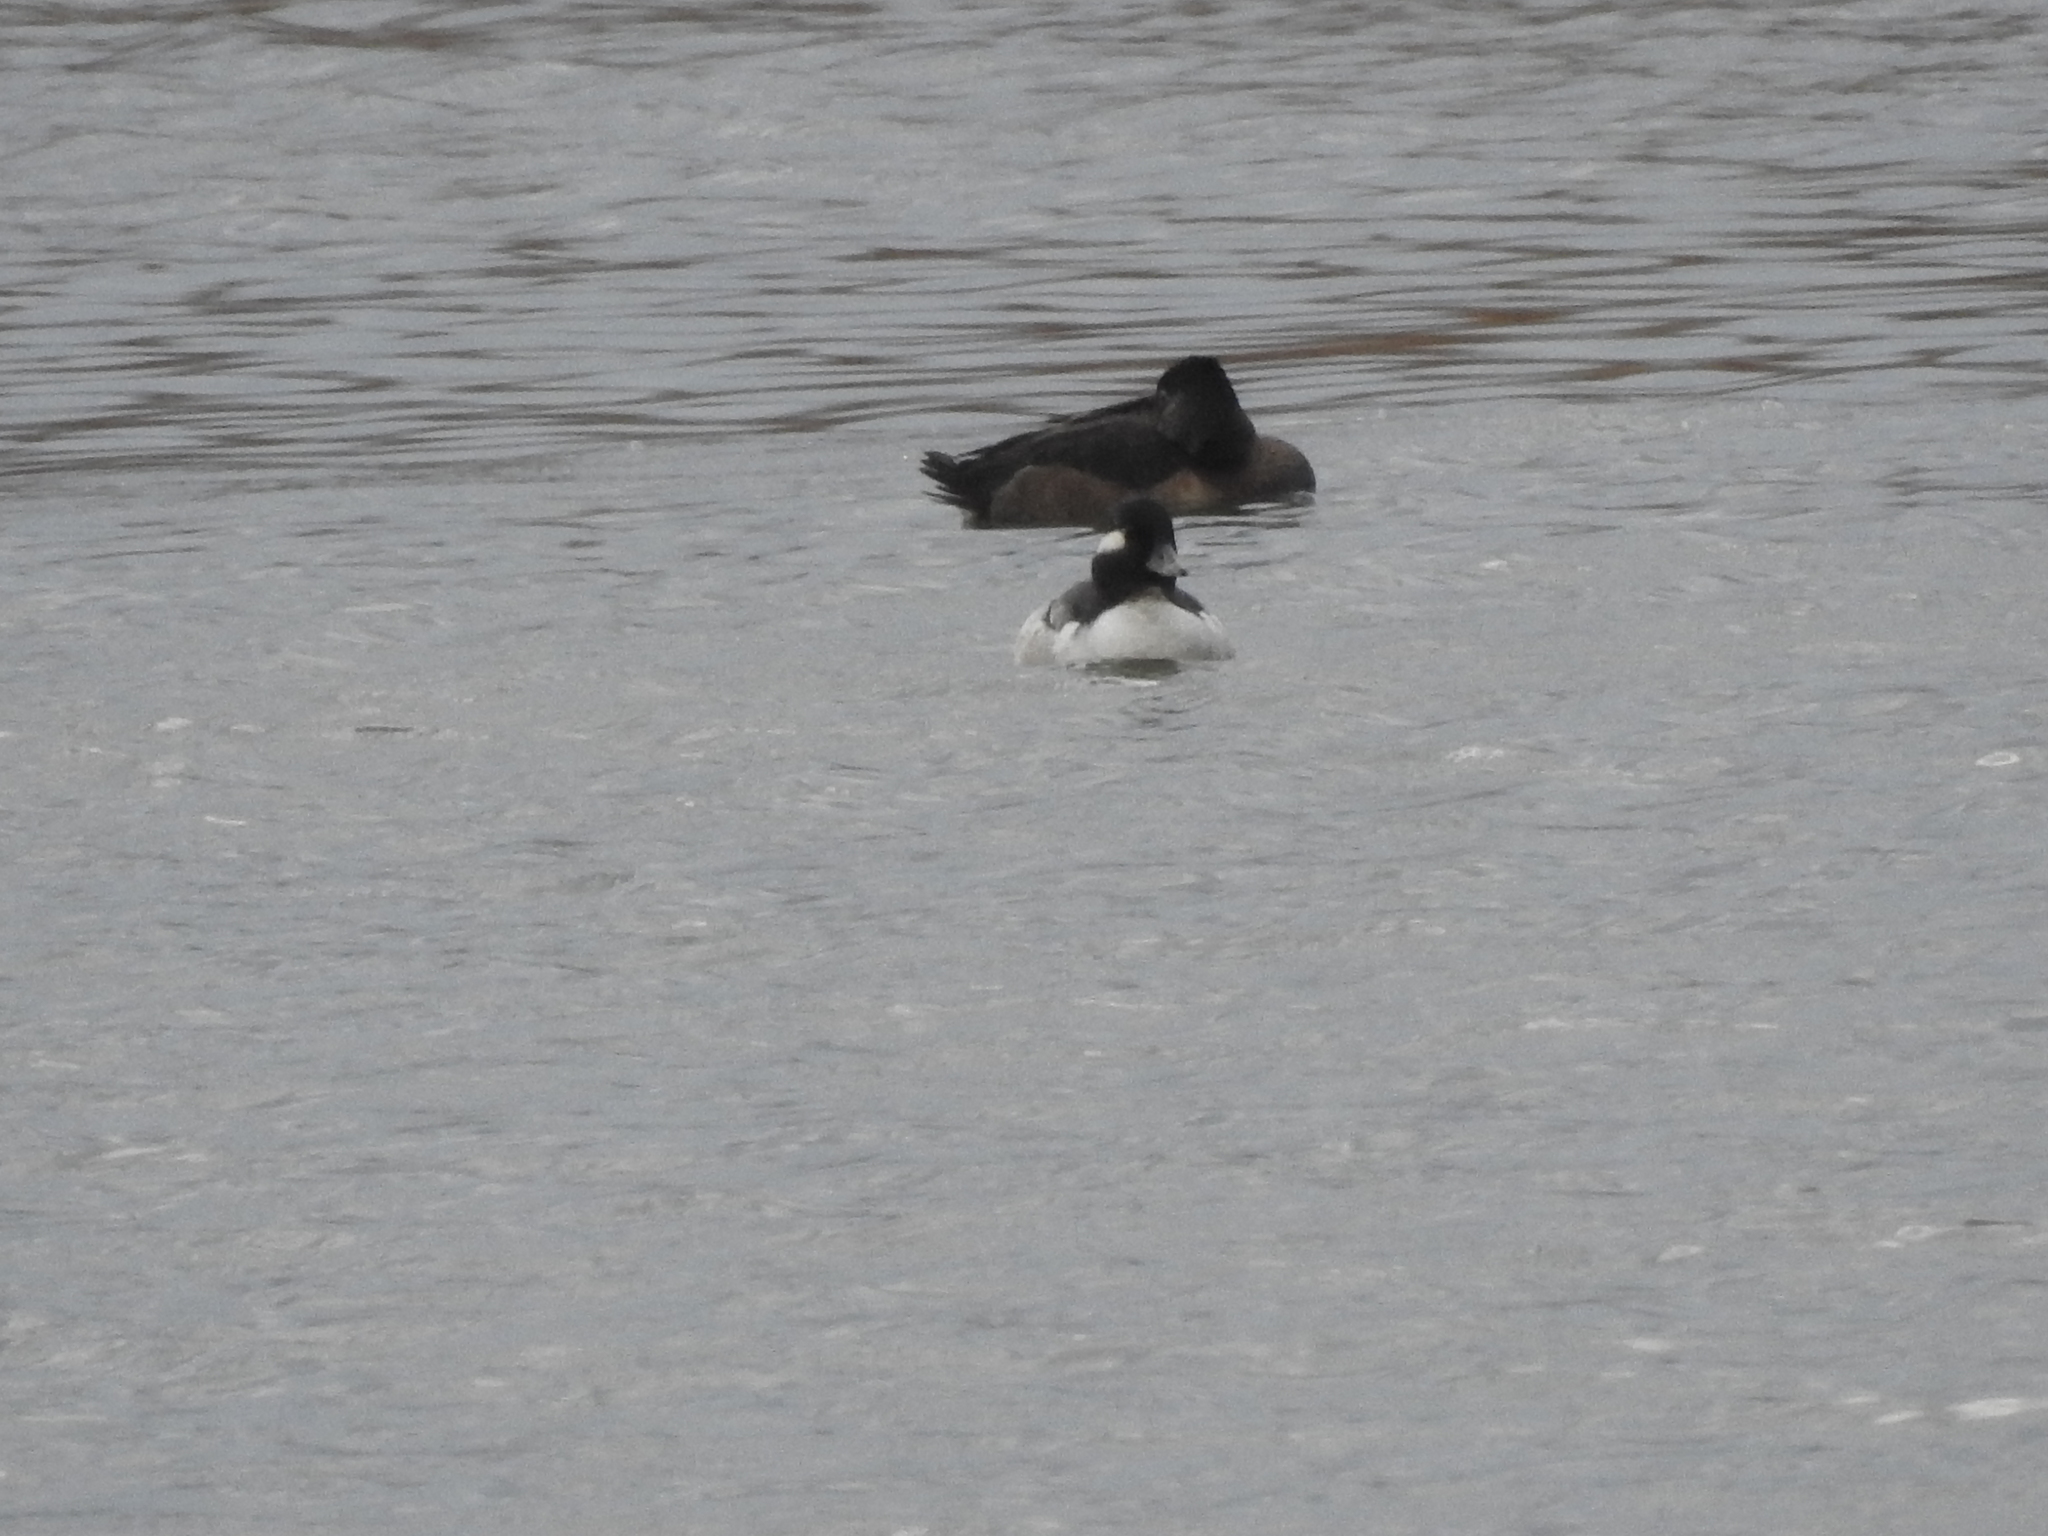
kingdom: Animalia
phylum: Chordata
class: Aves
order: Anseriformes
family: Anatidae
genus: Bucephala
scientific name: Bucephala albeola
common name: Bufflehead
